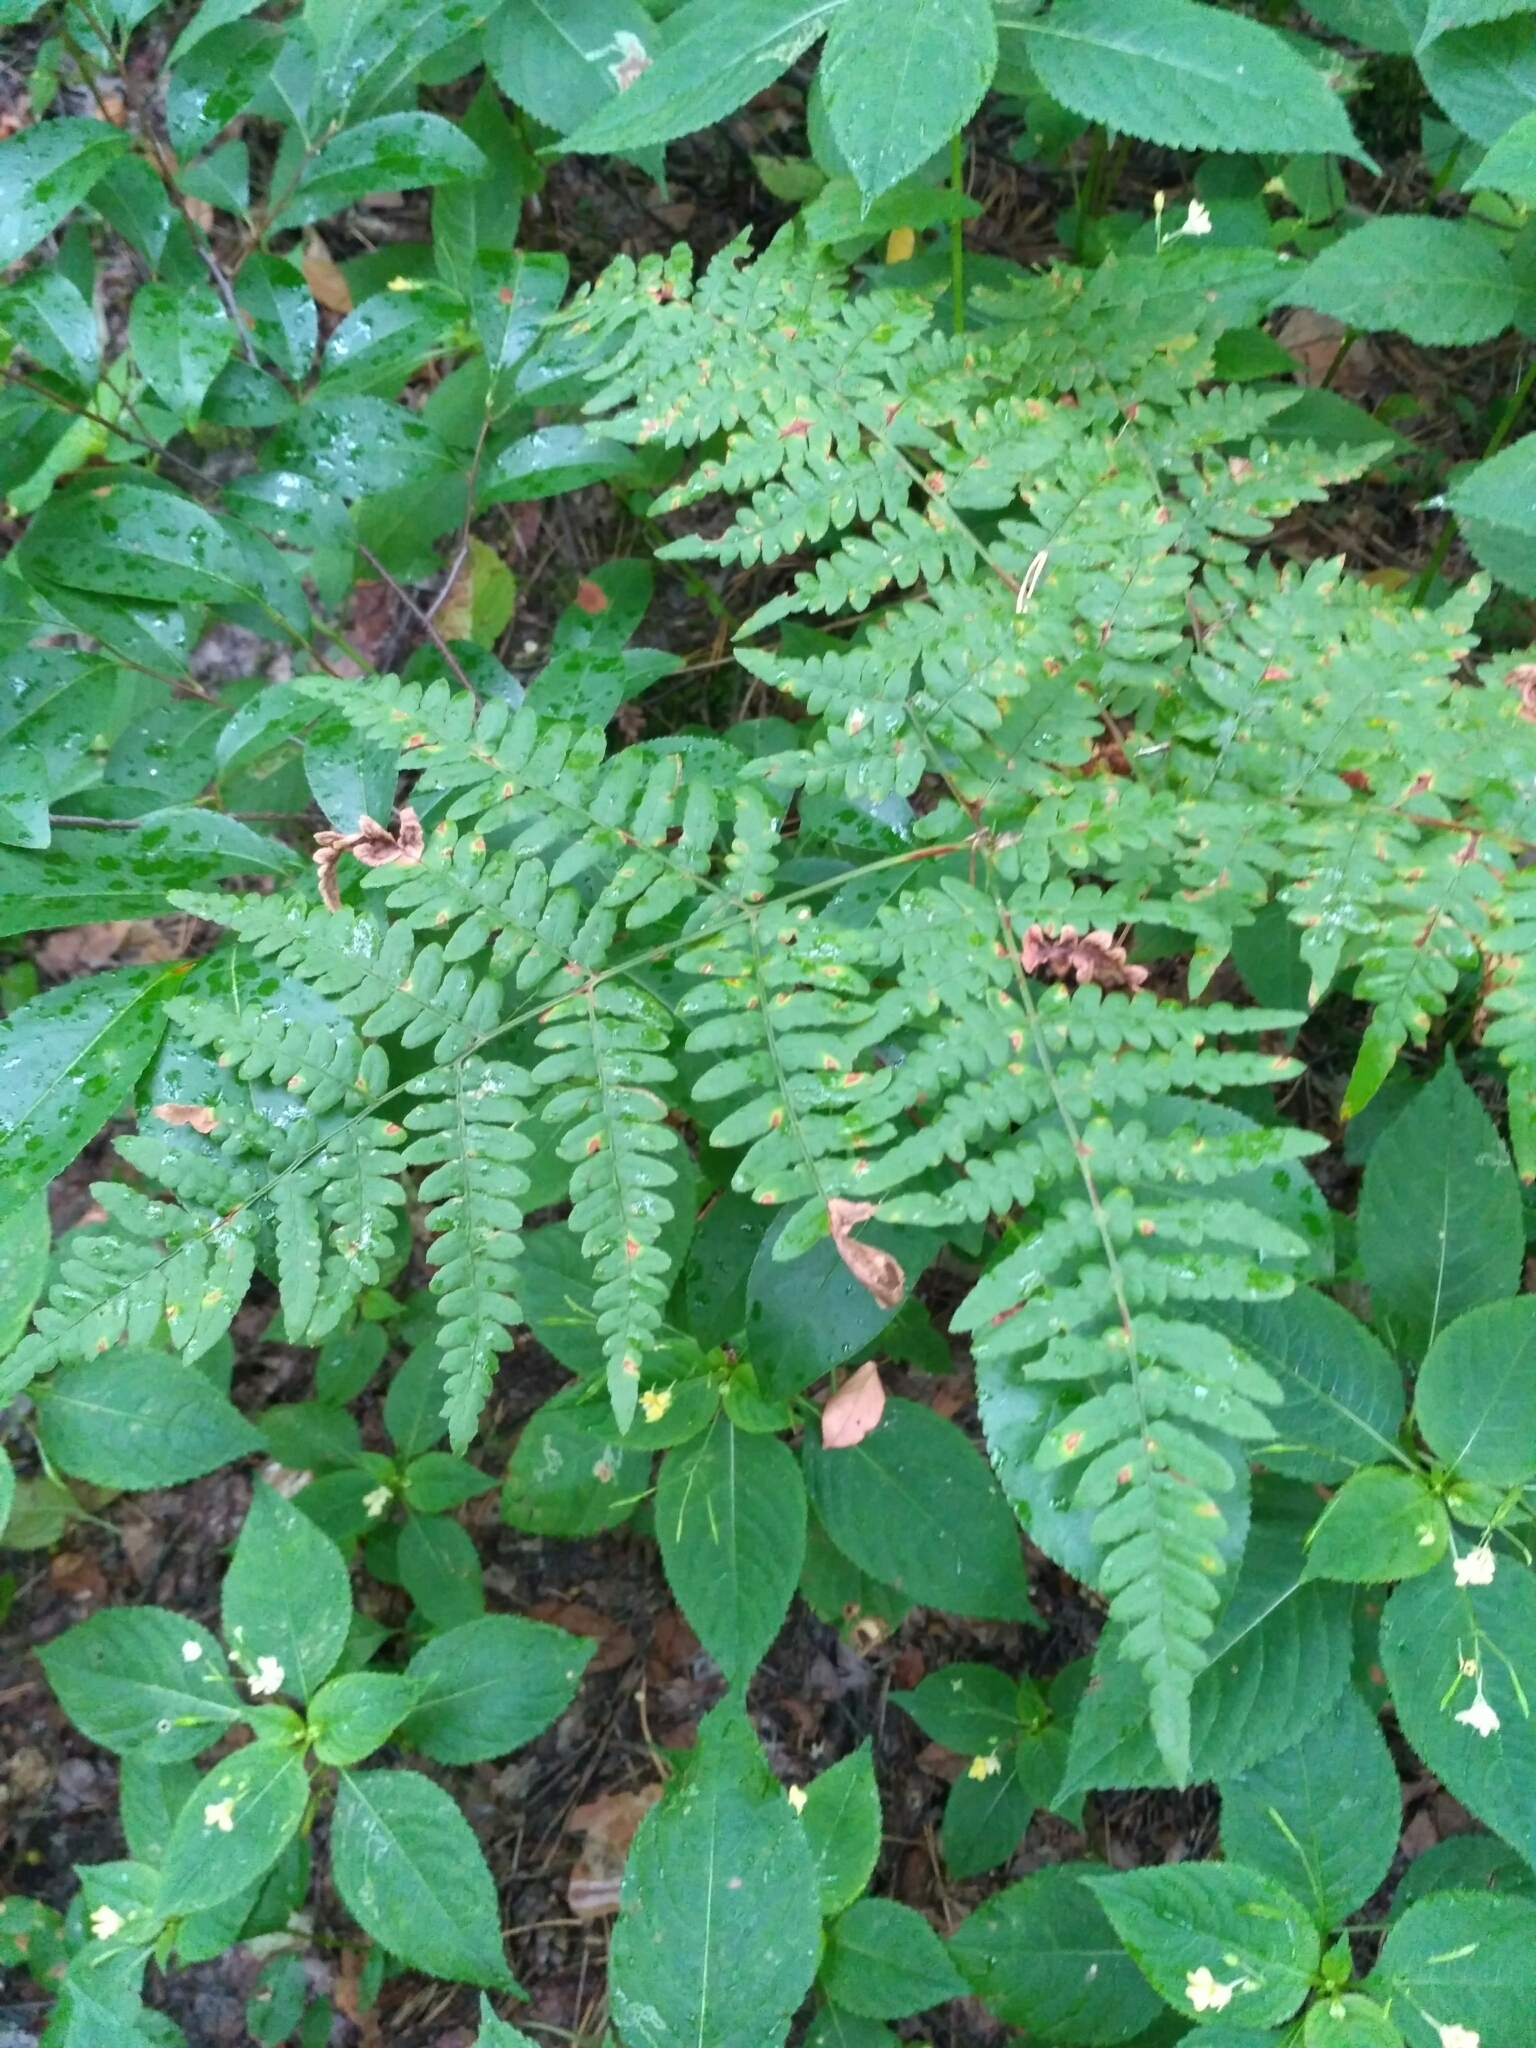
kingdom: Plantae
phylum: Tracheophyta
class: Polypodiopsida
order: Polypodiales
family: Dennstaedtiaceae
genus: Pteridium
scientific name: Pteridium aquilinum
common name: Bracken
